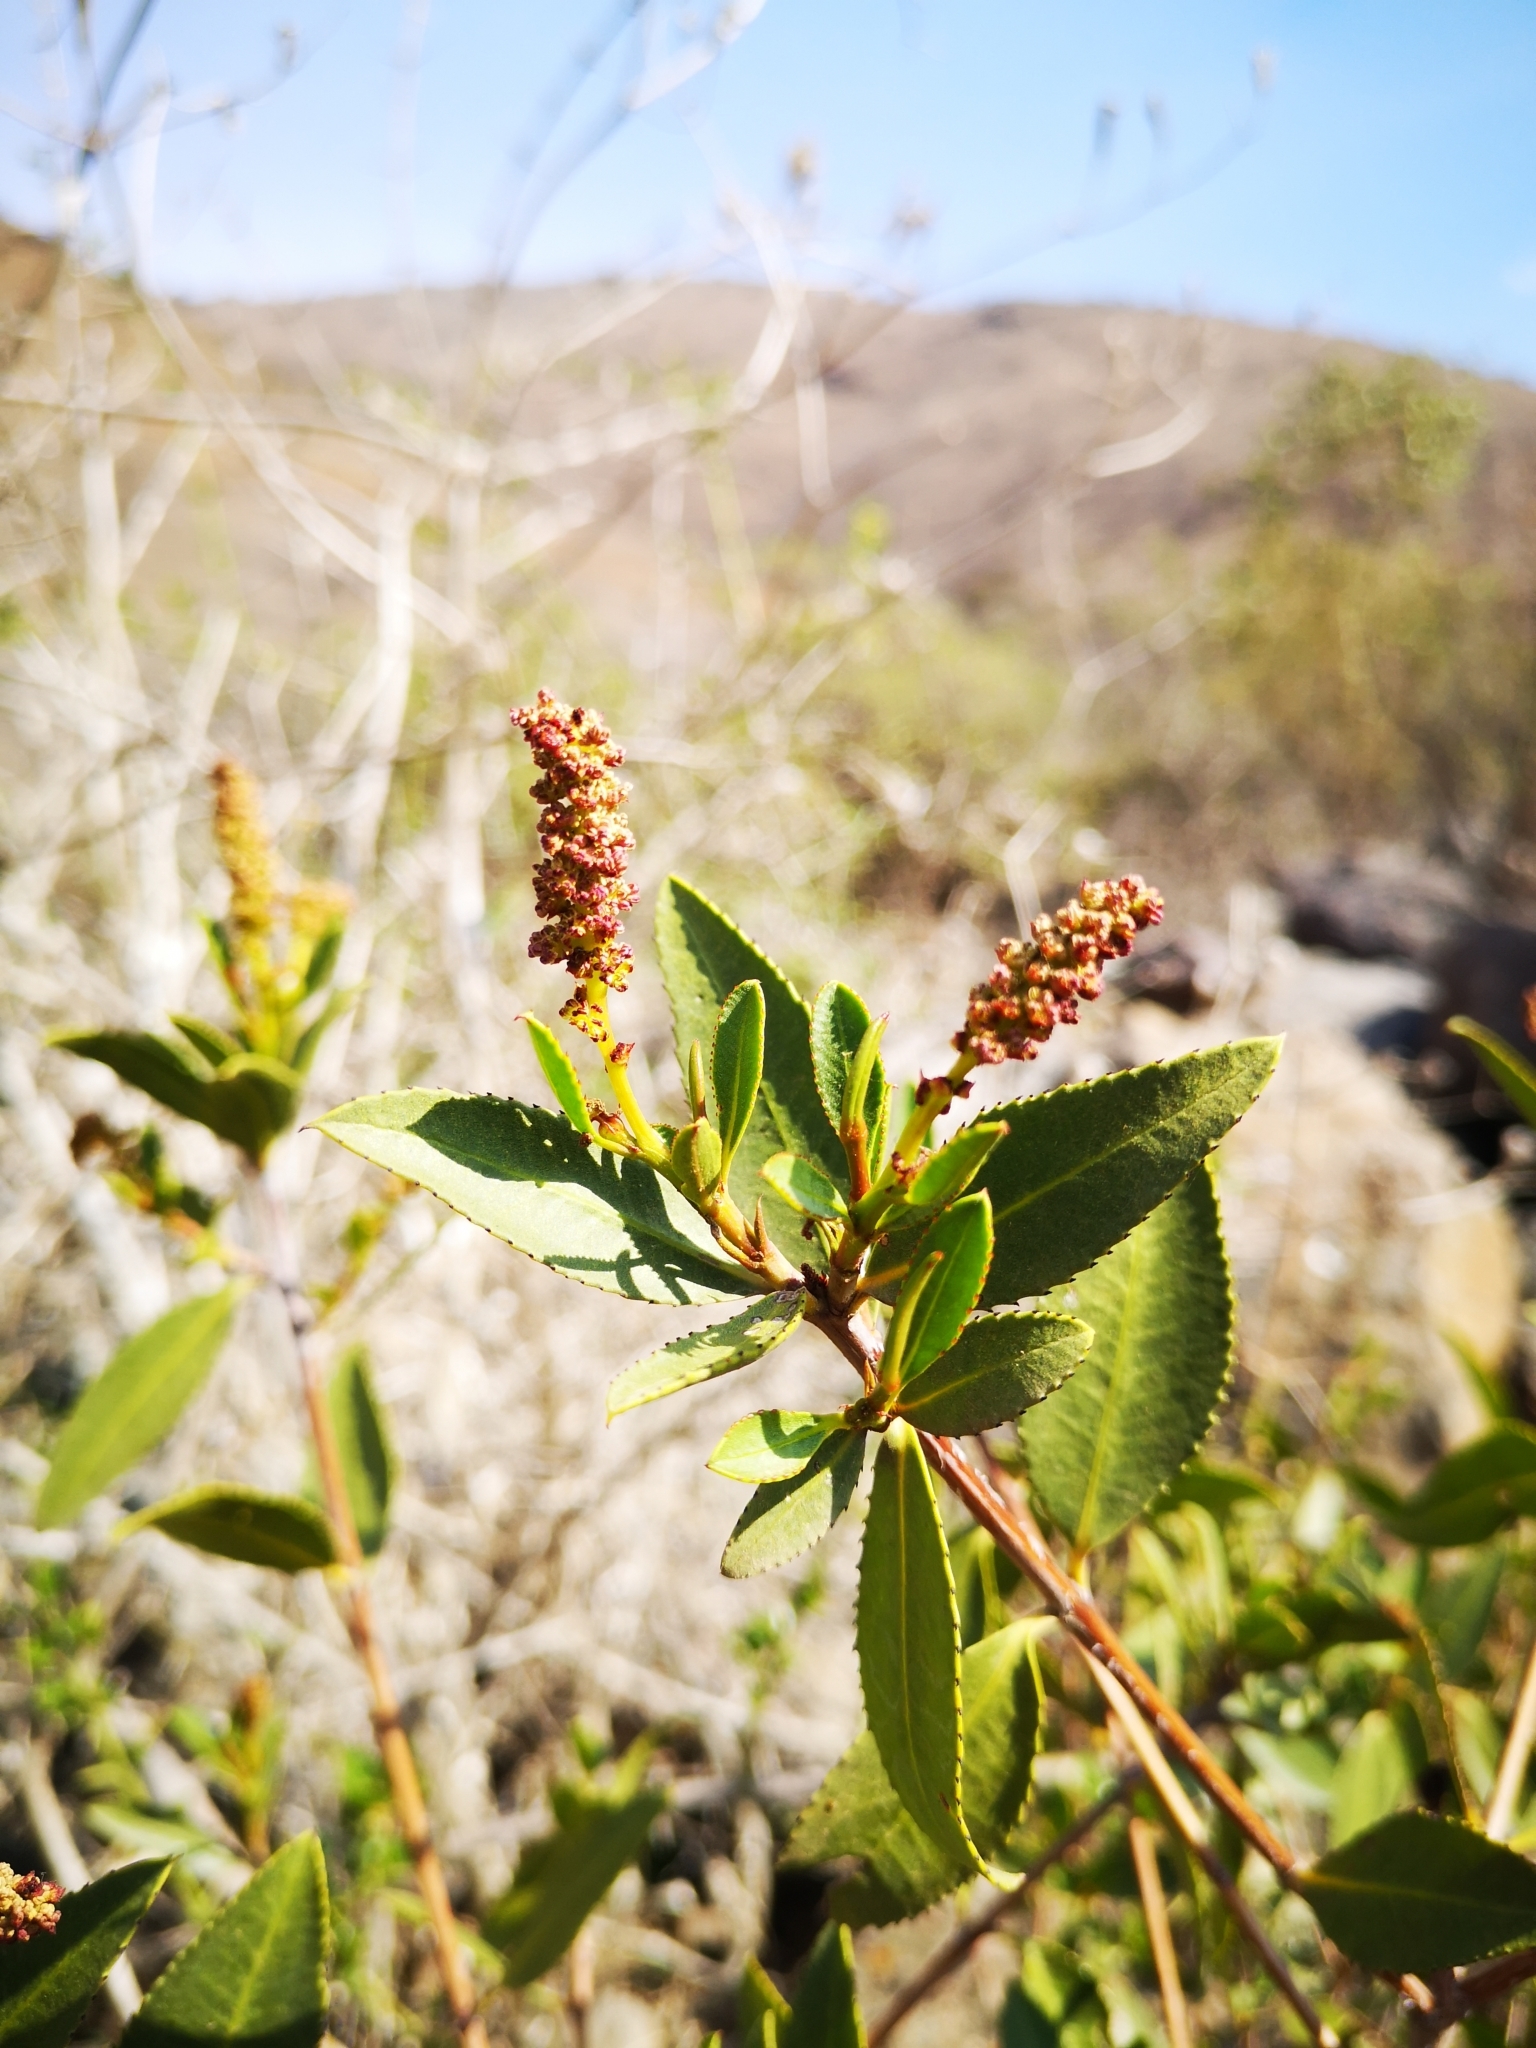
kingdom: Plantae
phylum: Tracheophyta
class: Magnoliopsida
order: Malpighiales
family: Euphorbiaceae
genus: Colliguaja
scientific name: Colliguaja odorifera
